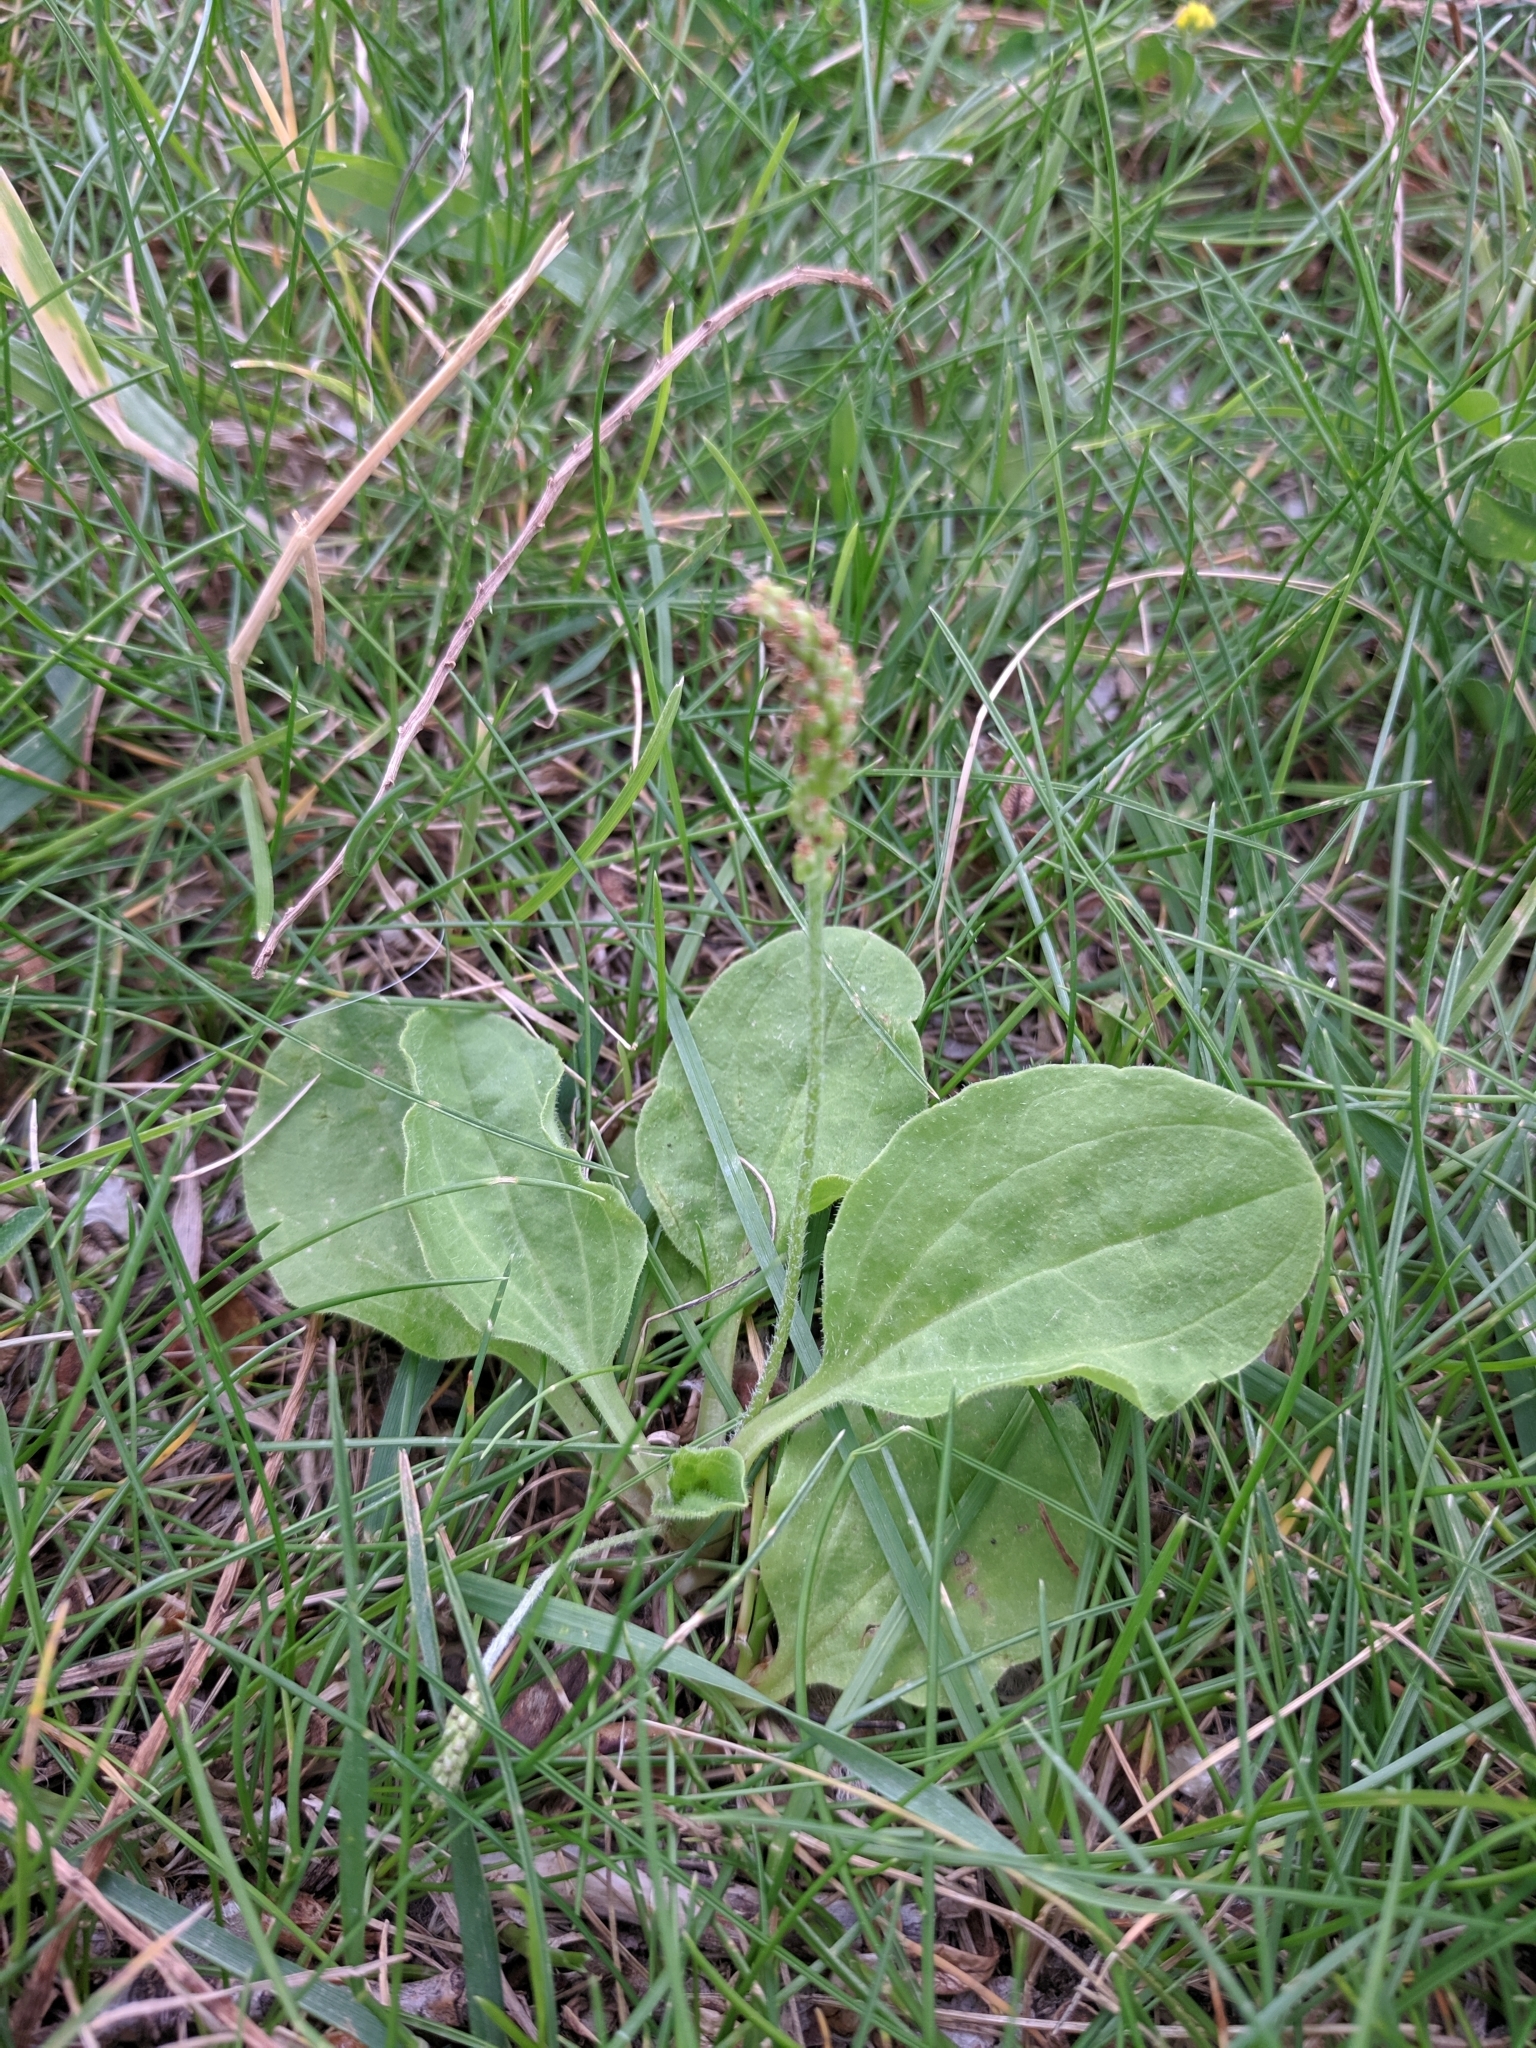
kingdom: Plantae
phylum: Tracheophyta
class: Magnoliopsida
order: Lamiales
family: Plantaginaceae
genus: Plantago
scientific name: Plantago major
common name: Common plantain
